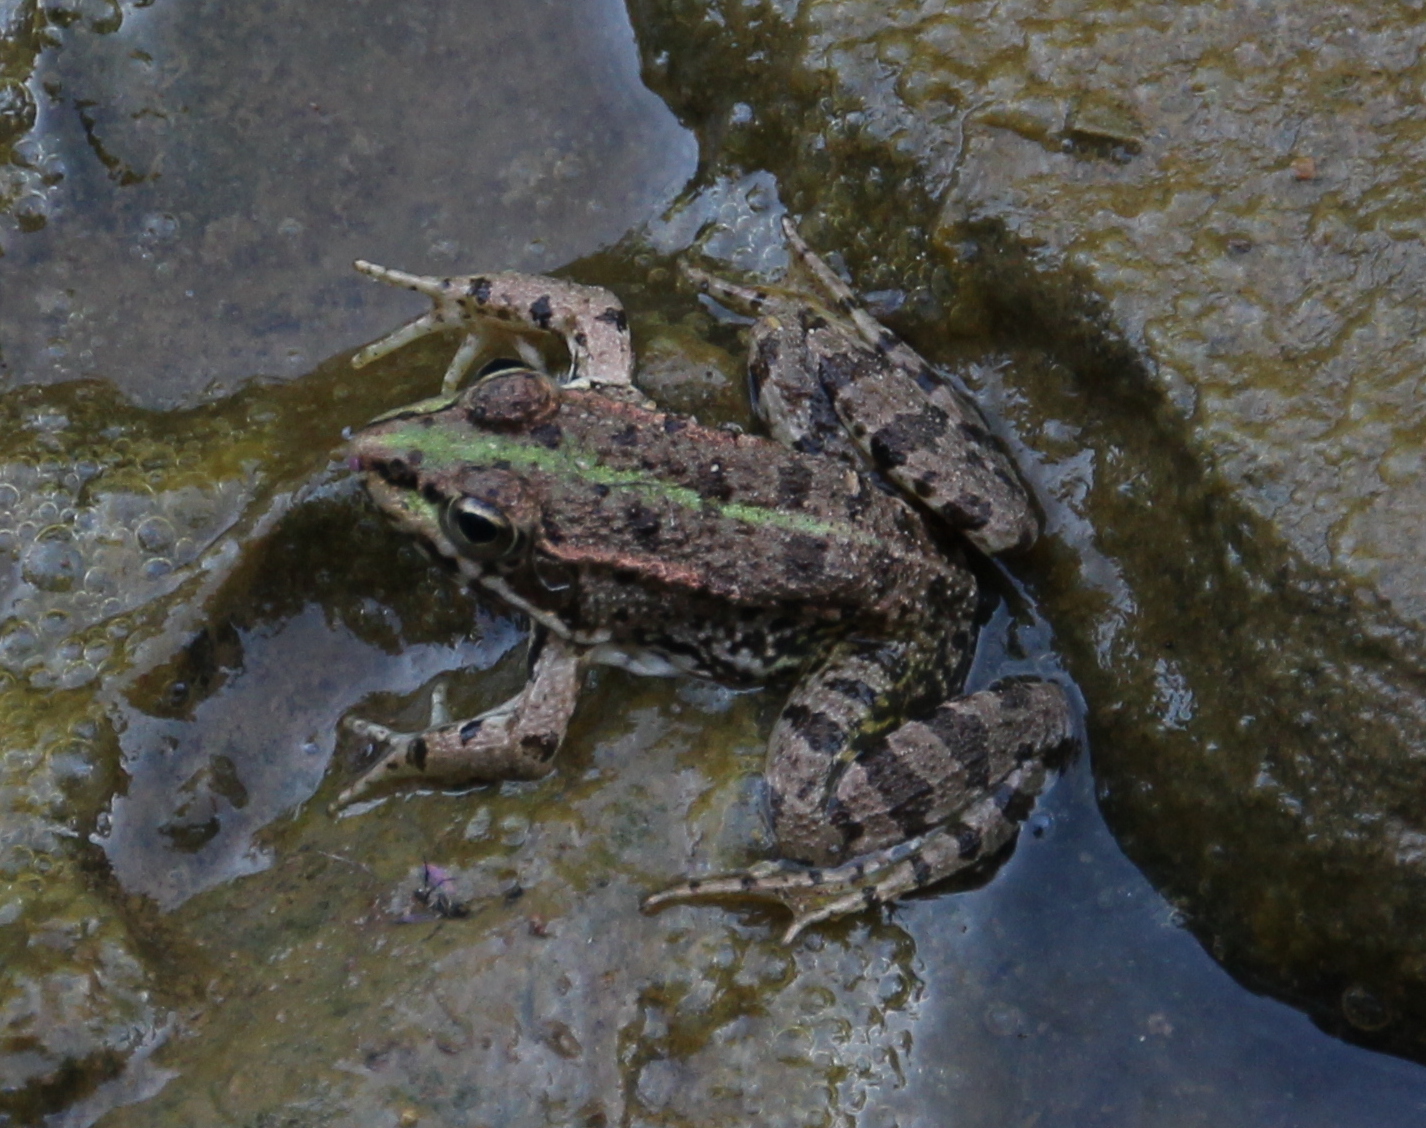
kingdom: Animalia
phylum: Chordata
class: Amphibia
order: Anura
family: Ranidae
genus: Pelophylax
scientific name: Pelophylax perezi
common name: Perez's frog
